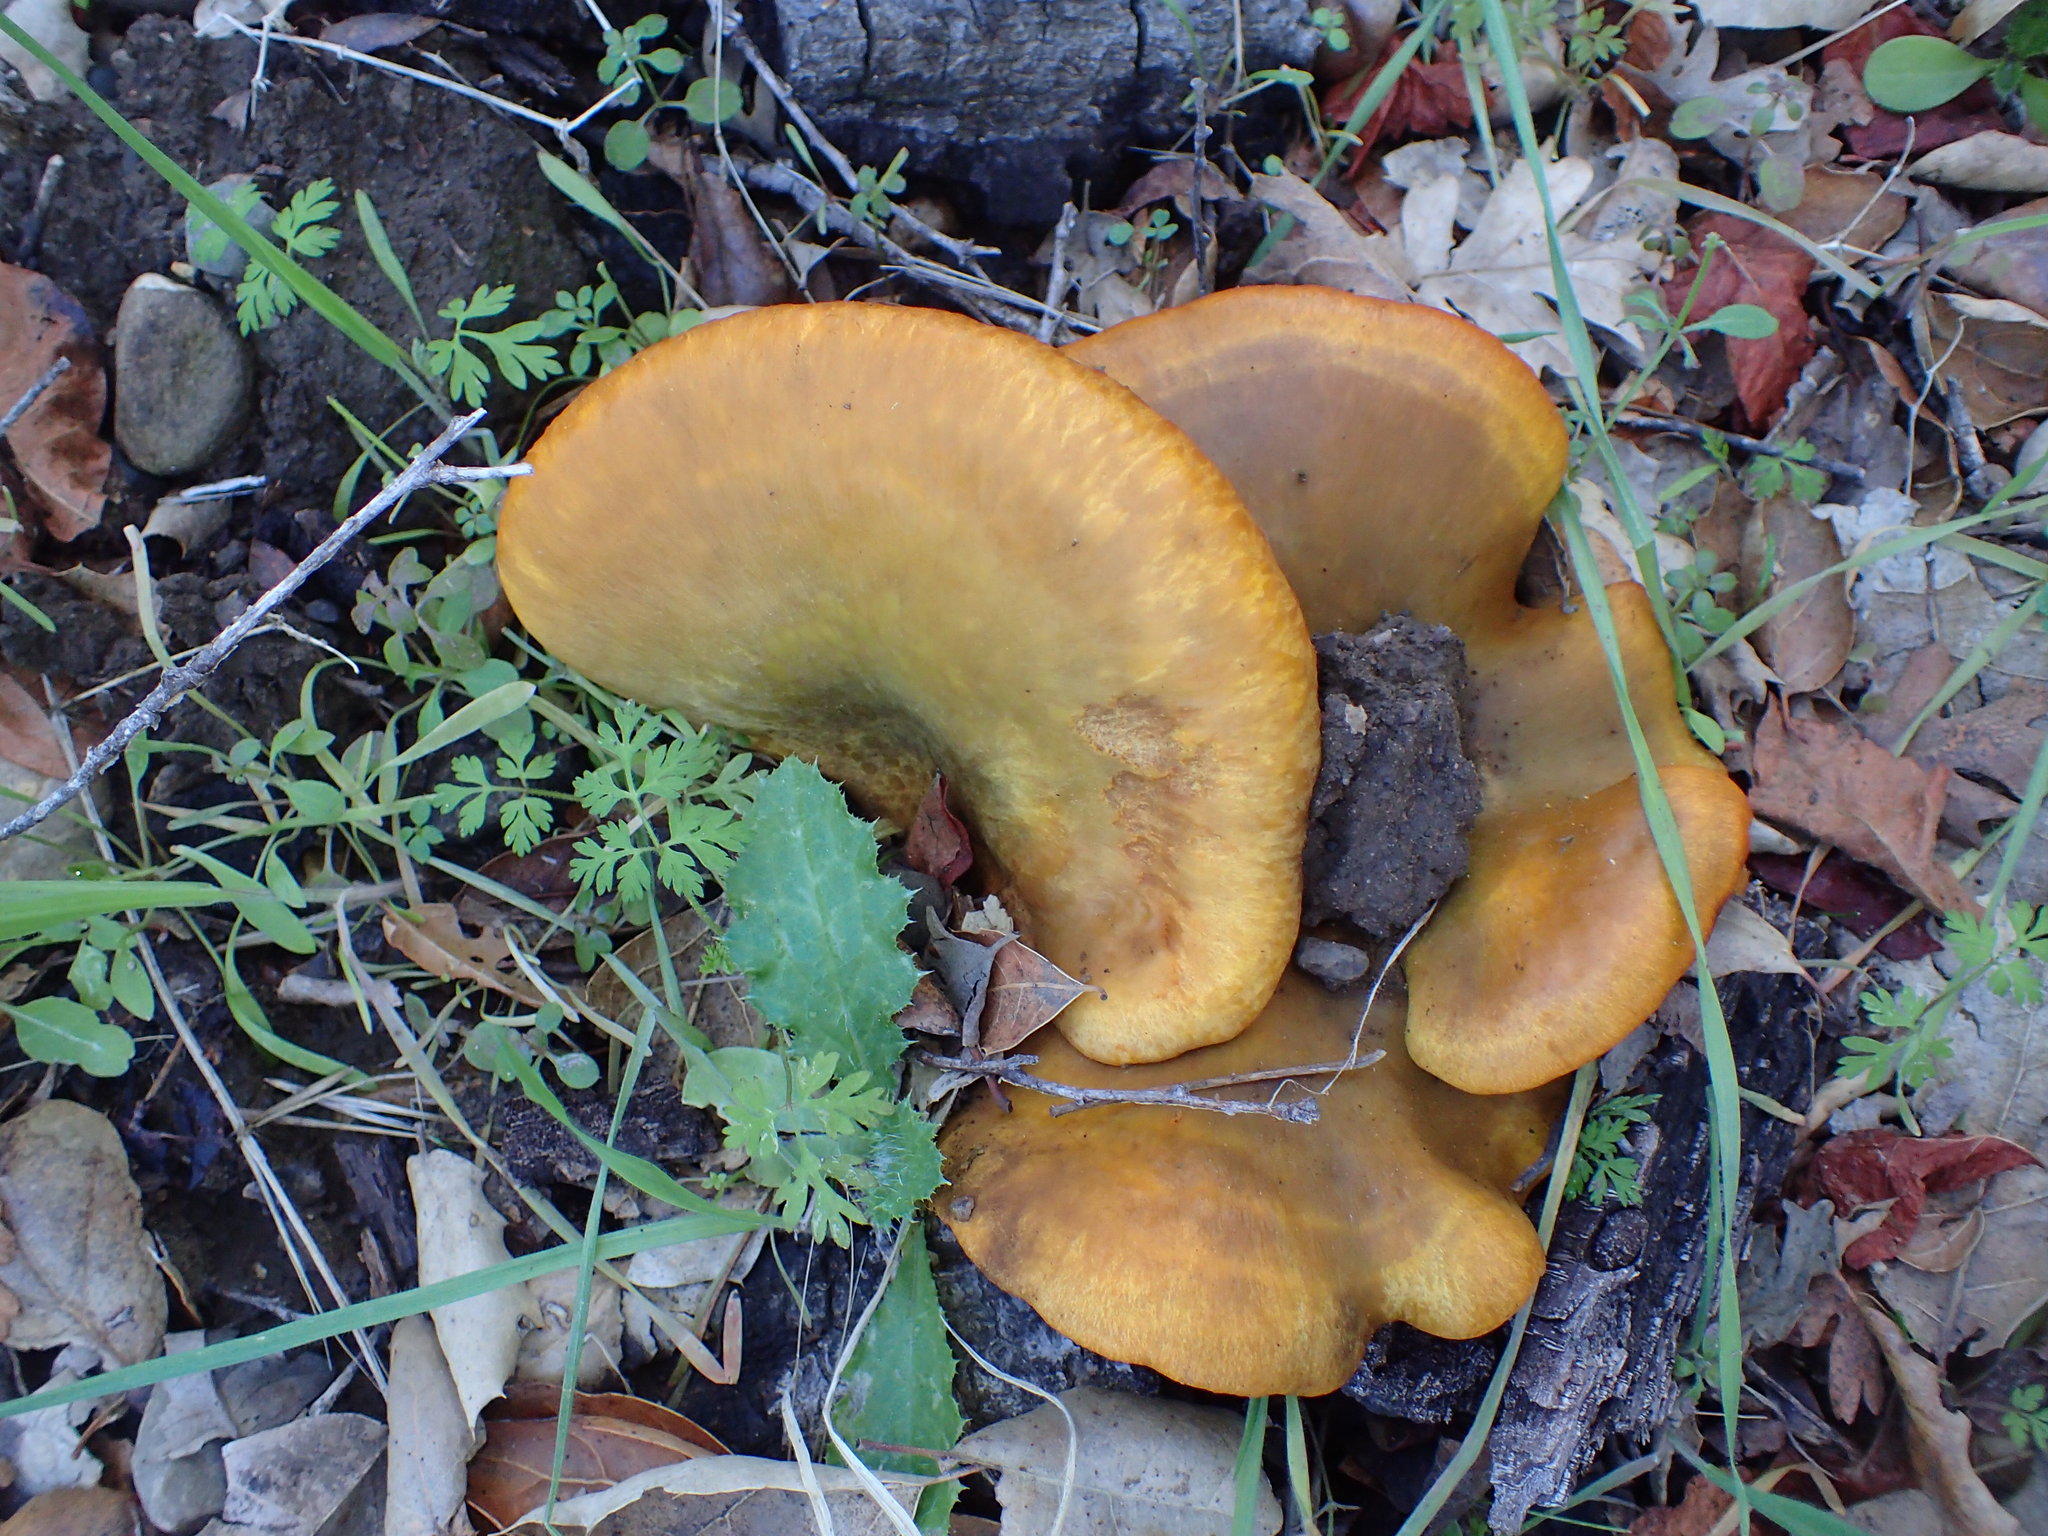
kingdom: Fungi
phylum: Basidiomycota
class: Agaricomycetes
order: Agaricales
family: Omphalotaceae
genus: Omphalotus
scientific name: Omphalotus olivascens
